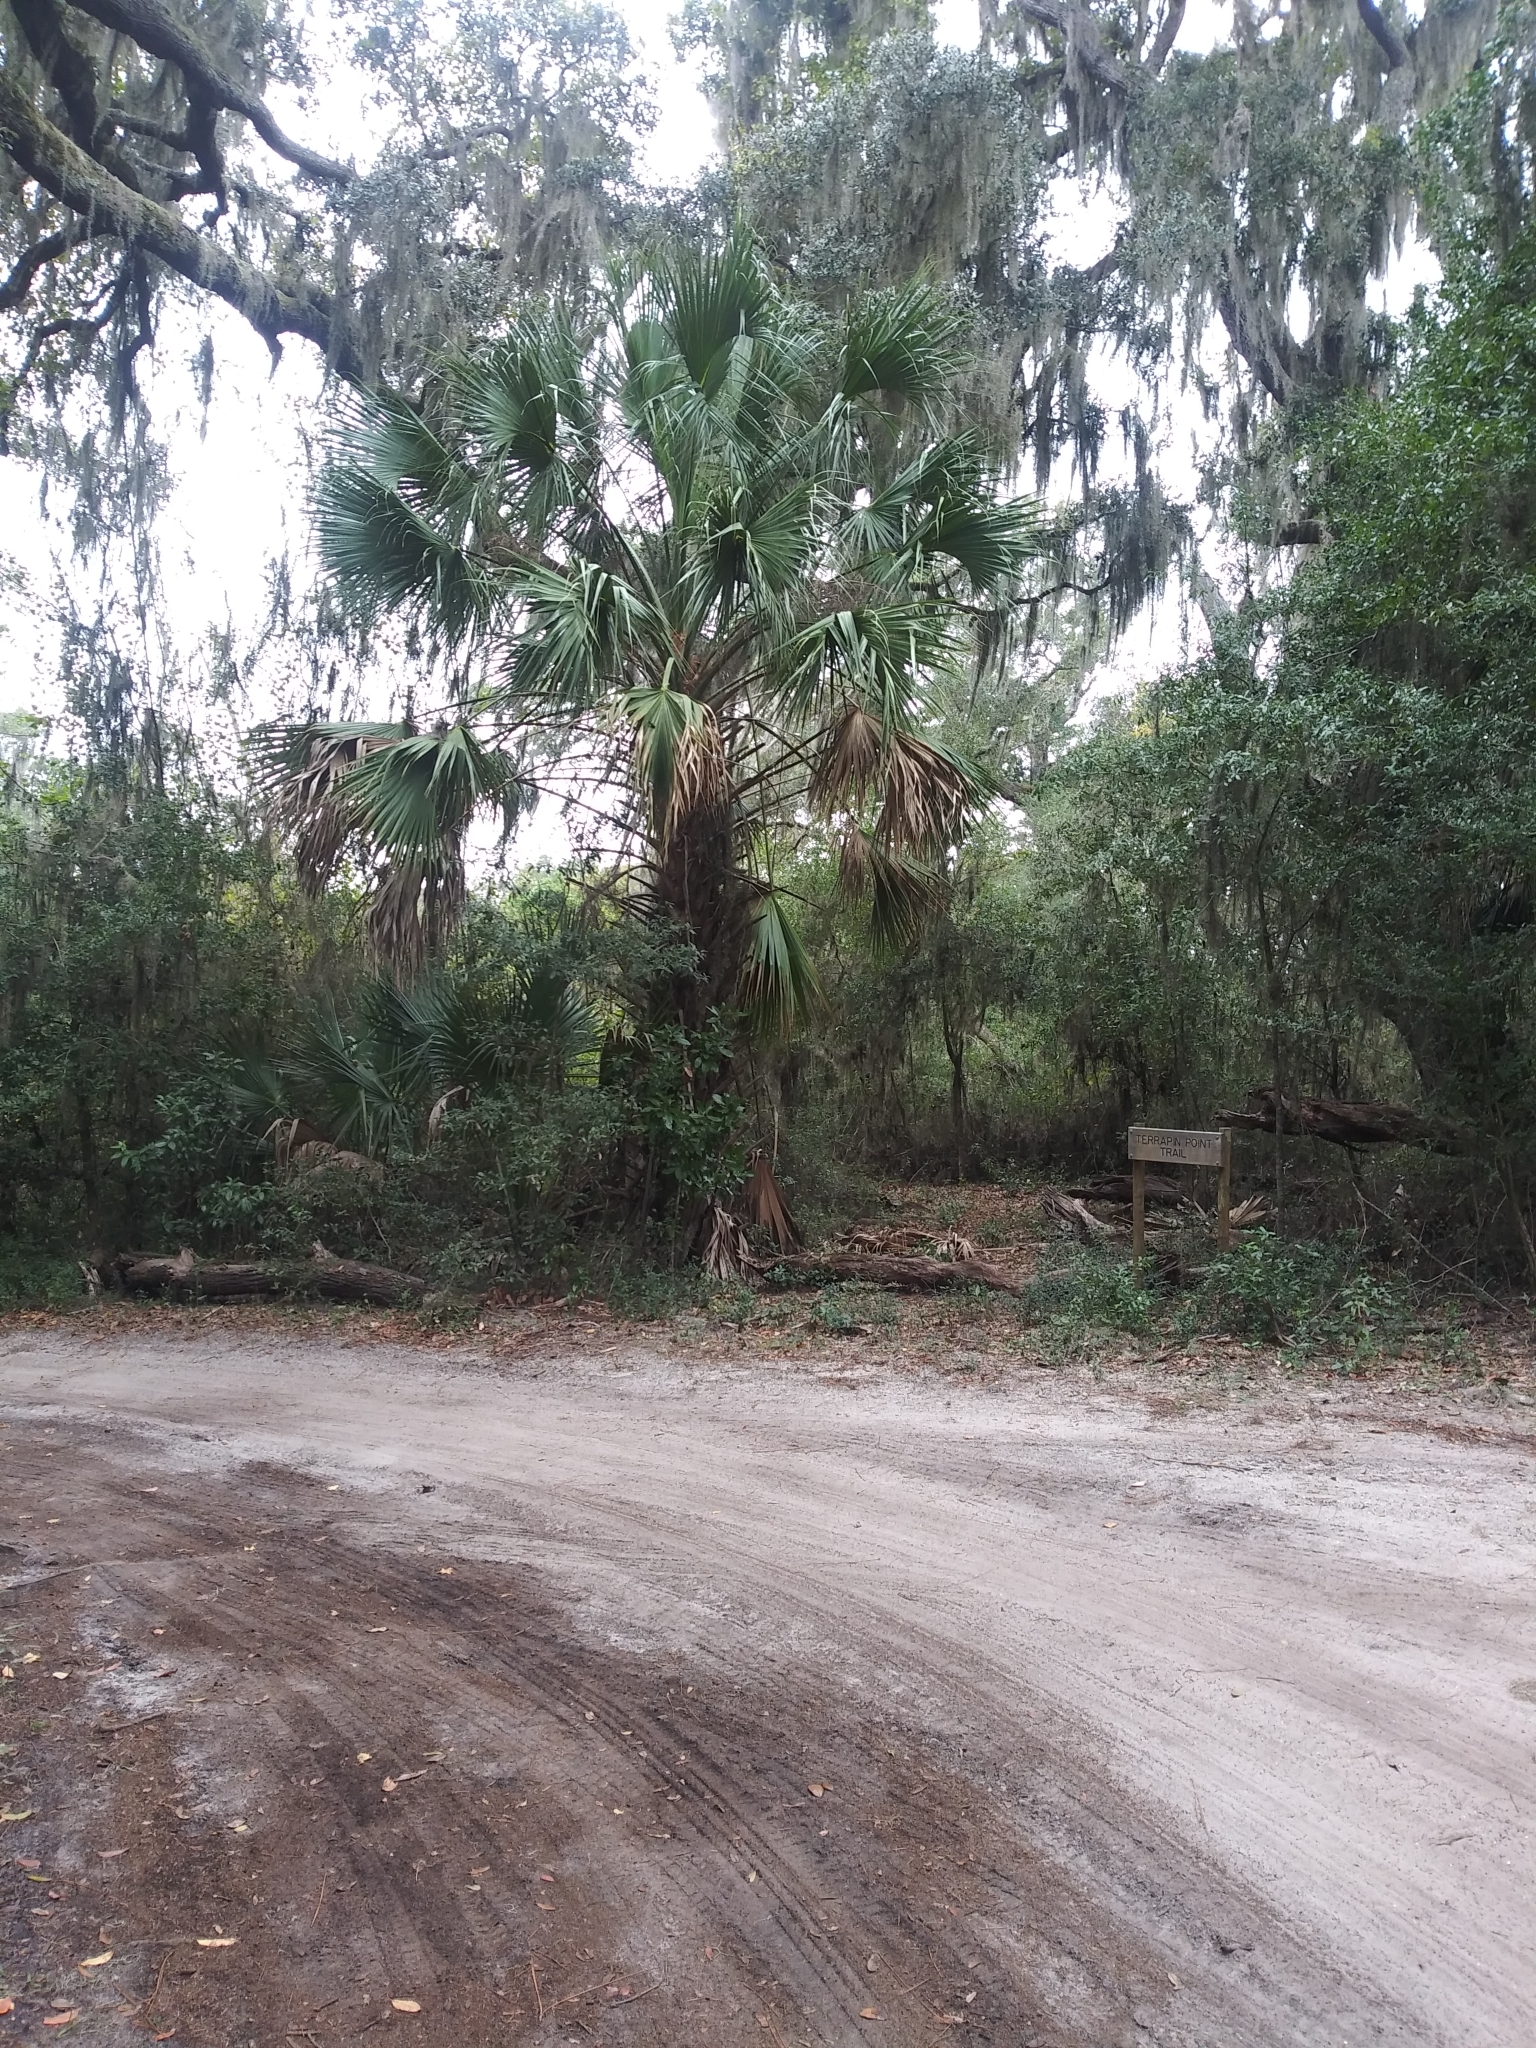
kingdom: Plantae
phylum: Tracheophyta
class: Liliopsida
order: Arecales
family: Arecaceae
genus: Sabal
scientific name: Sabal palmetto
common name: Blue palmetto
